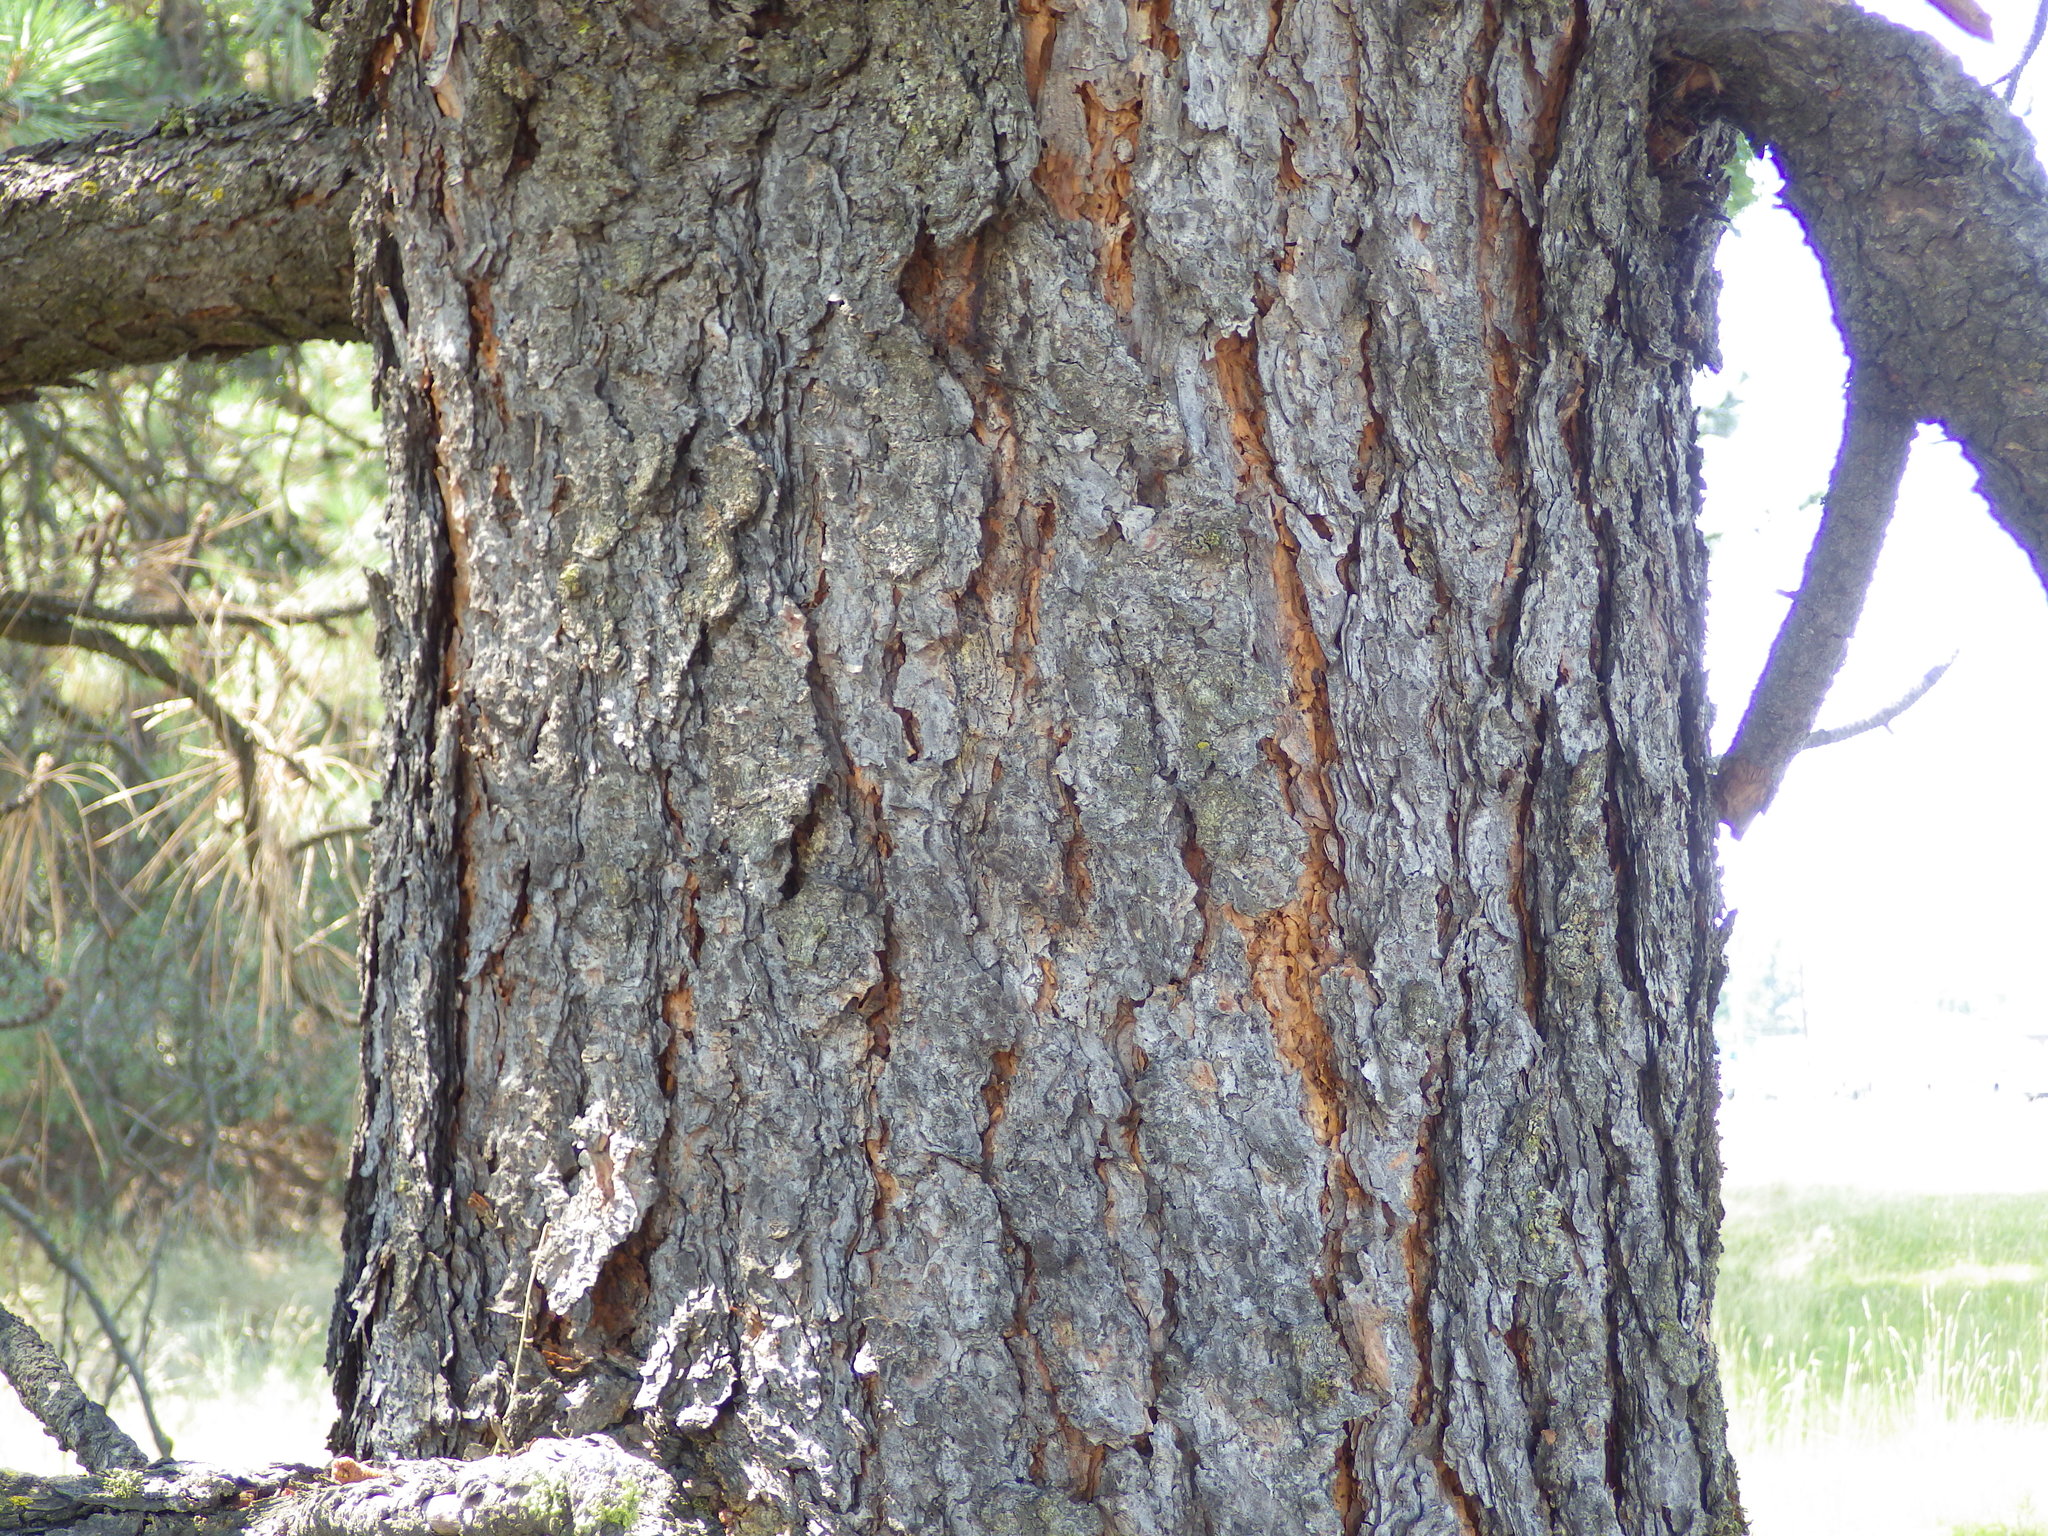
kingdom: Plantae
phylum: Tracheophyta
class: Pinopsida
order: Pinales
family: Pinaceae
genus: Pinus
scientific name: Pinus ponderosa
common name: Western yellow-pine
